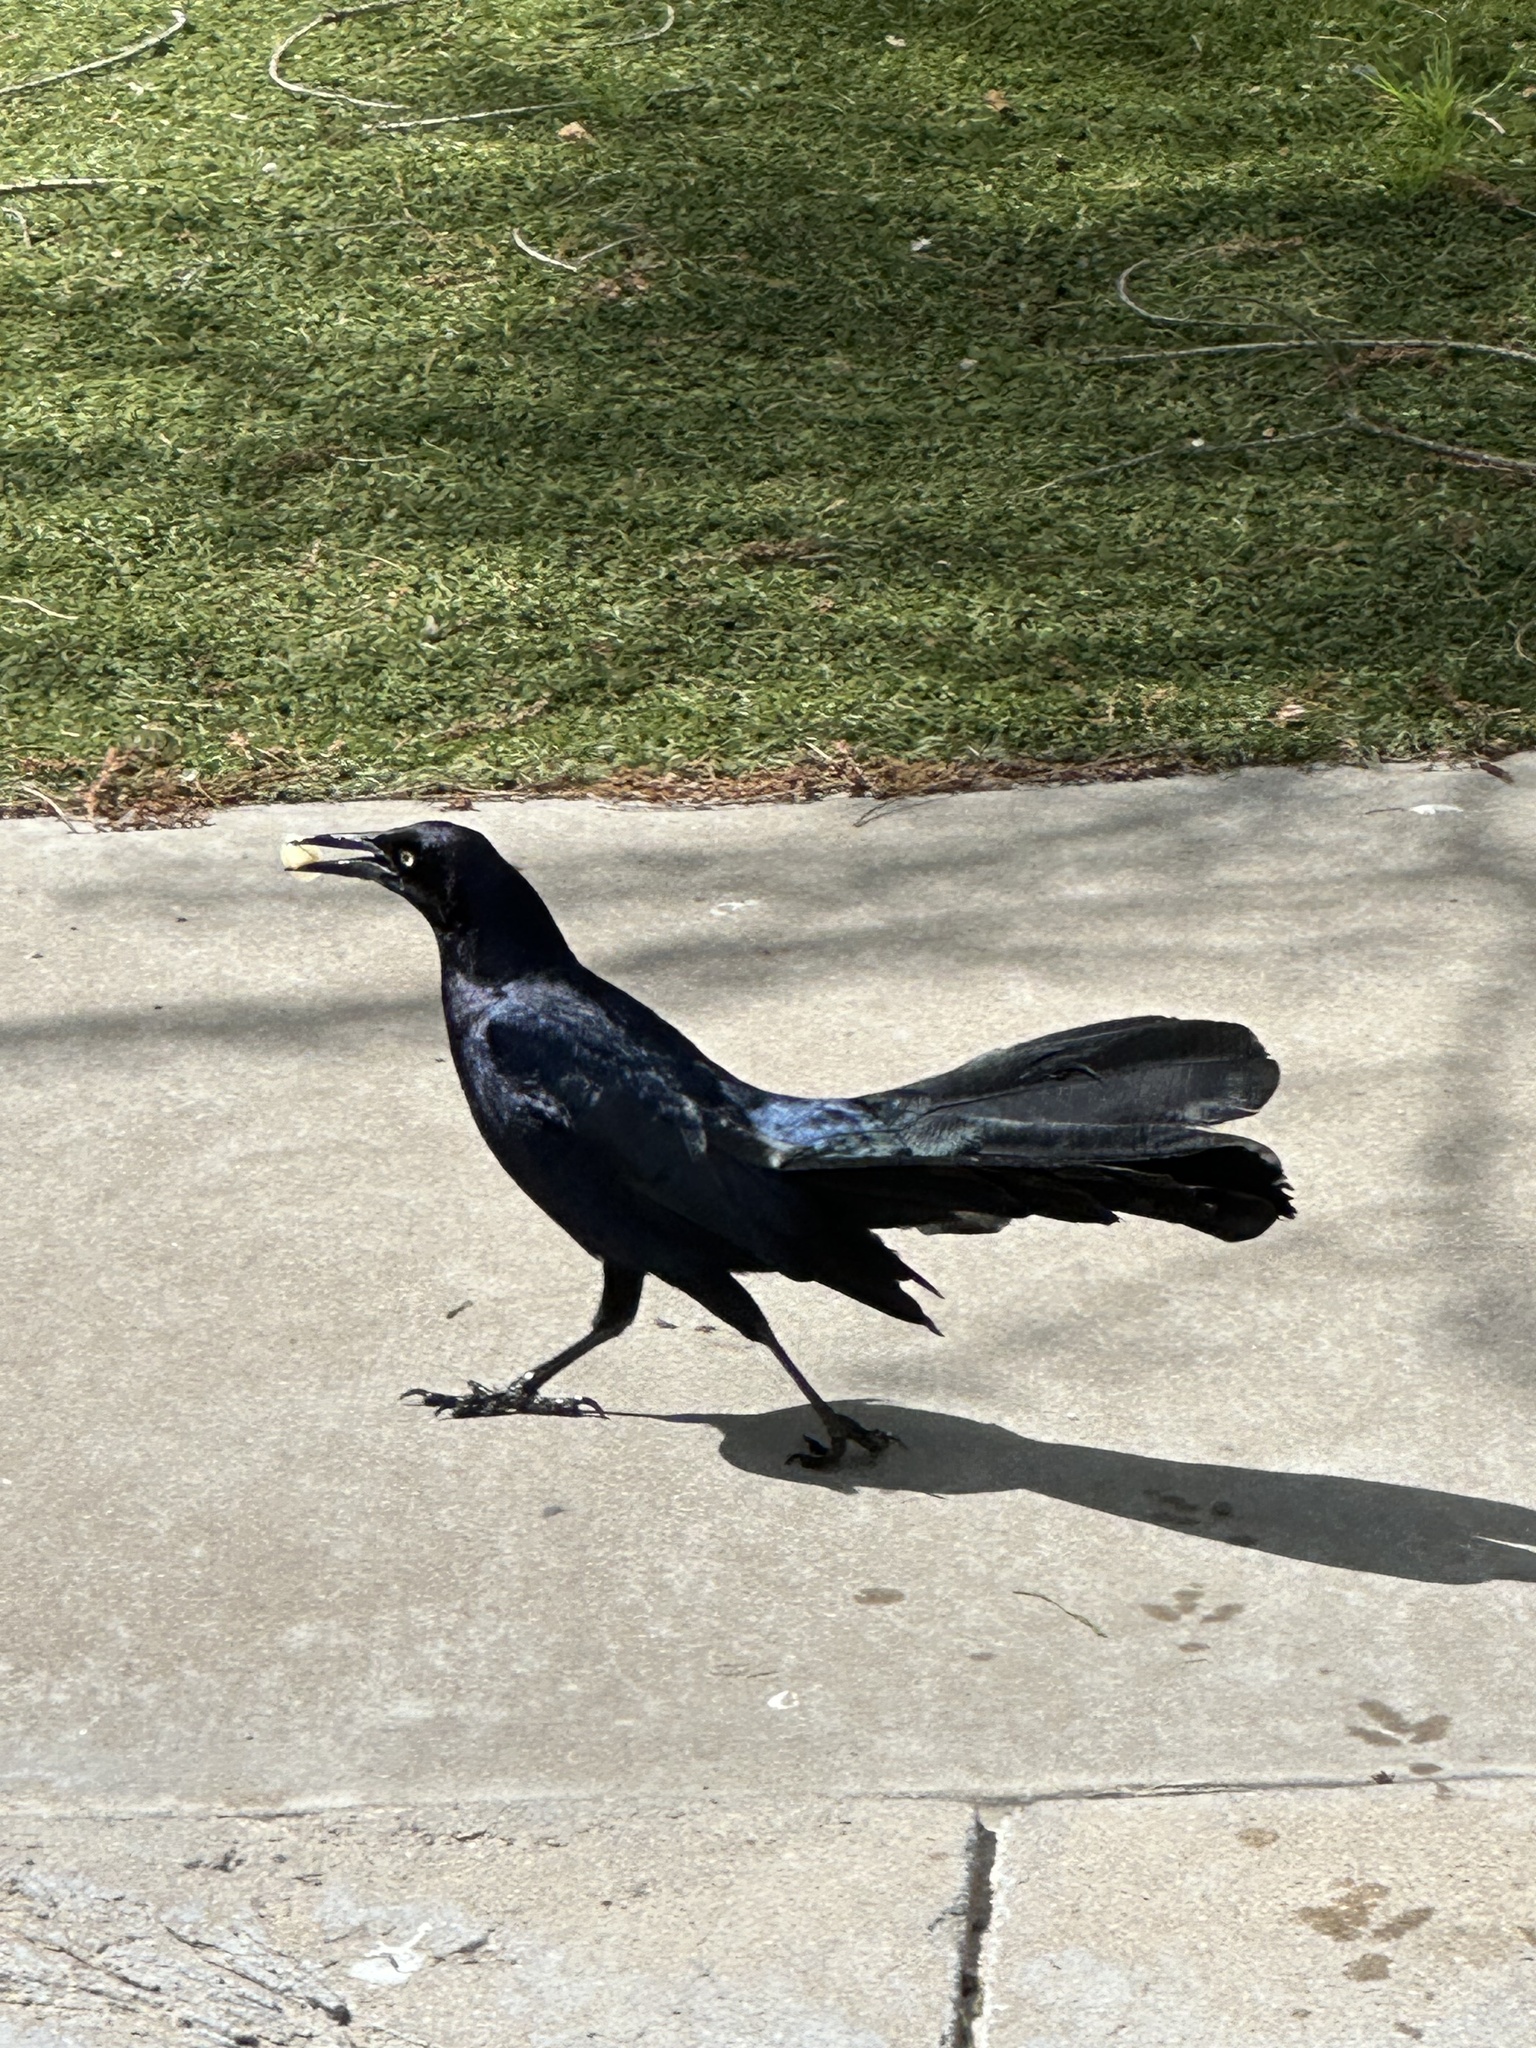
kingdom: Animalia
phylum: Chordata
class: Aves
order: Passeriformes
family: Icteridae
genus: Quiscalus
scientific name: Quiscalus mexicanus
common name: Great-tailed grackle
